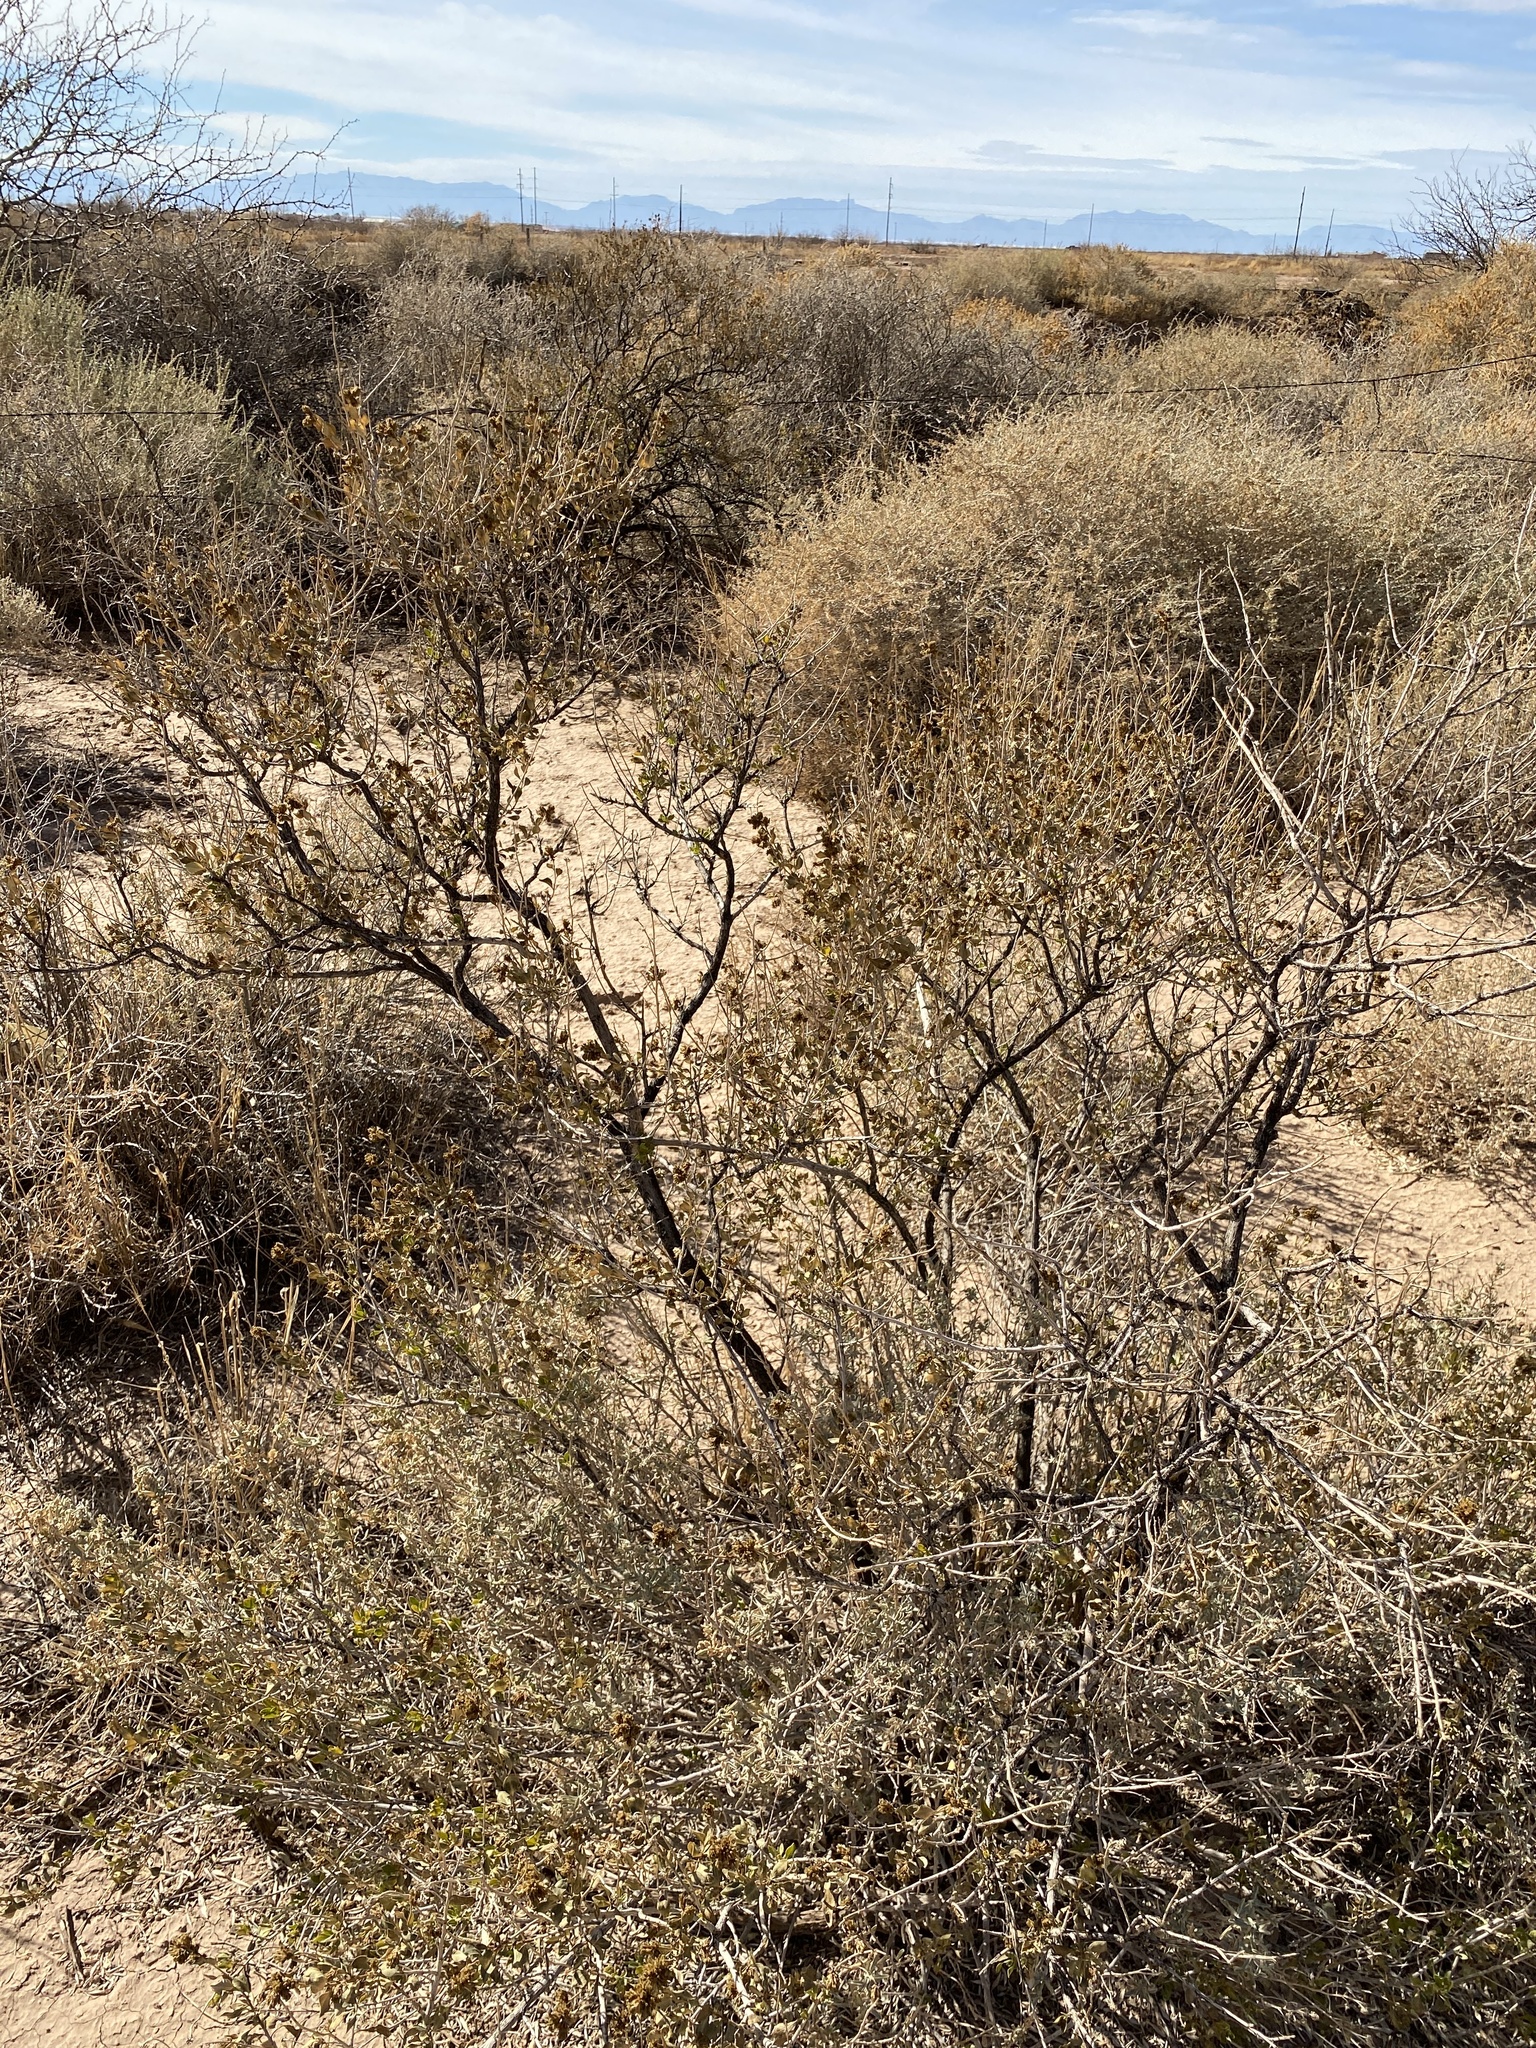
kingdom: Plantae
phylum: Tracheophyta
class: Magnoliopsida
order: Asterales
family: Asteraceae
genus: Flourensia
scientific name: Flourensia cernua
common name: Varnishbush
